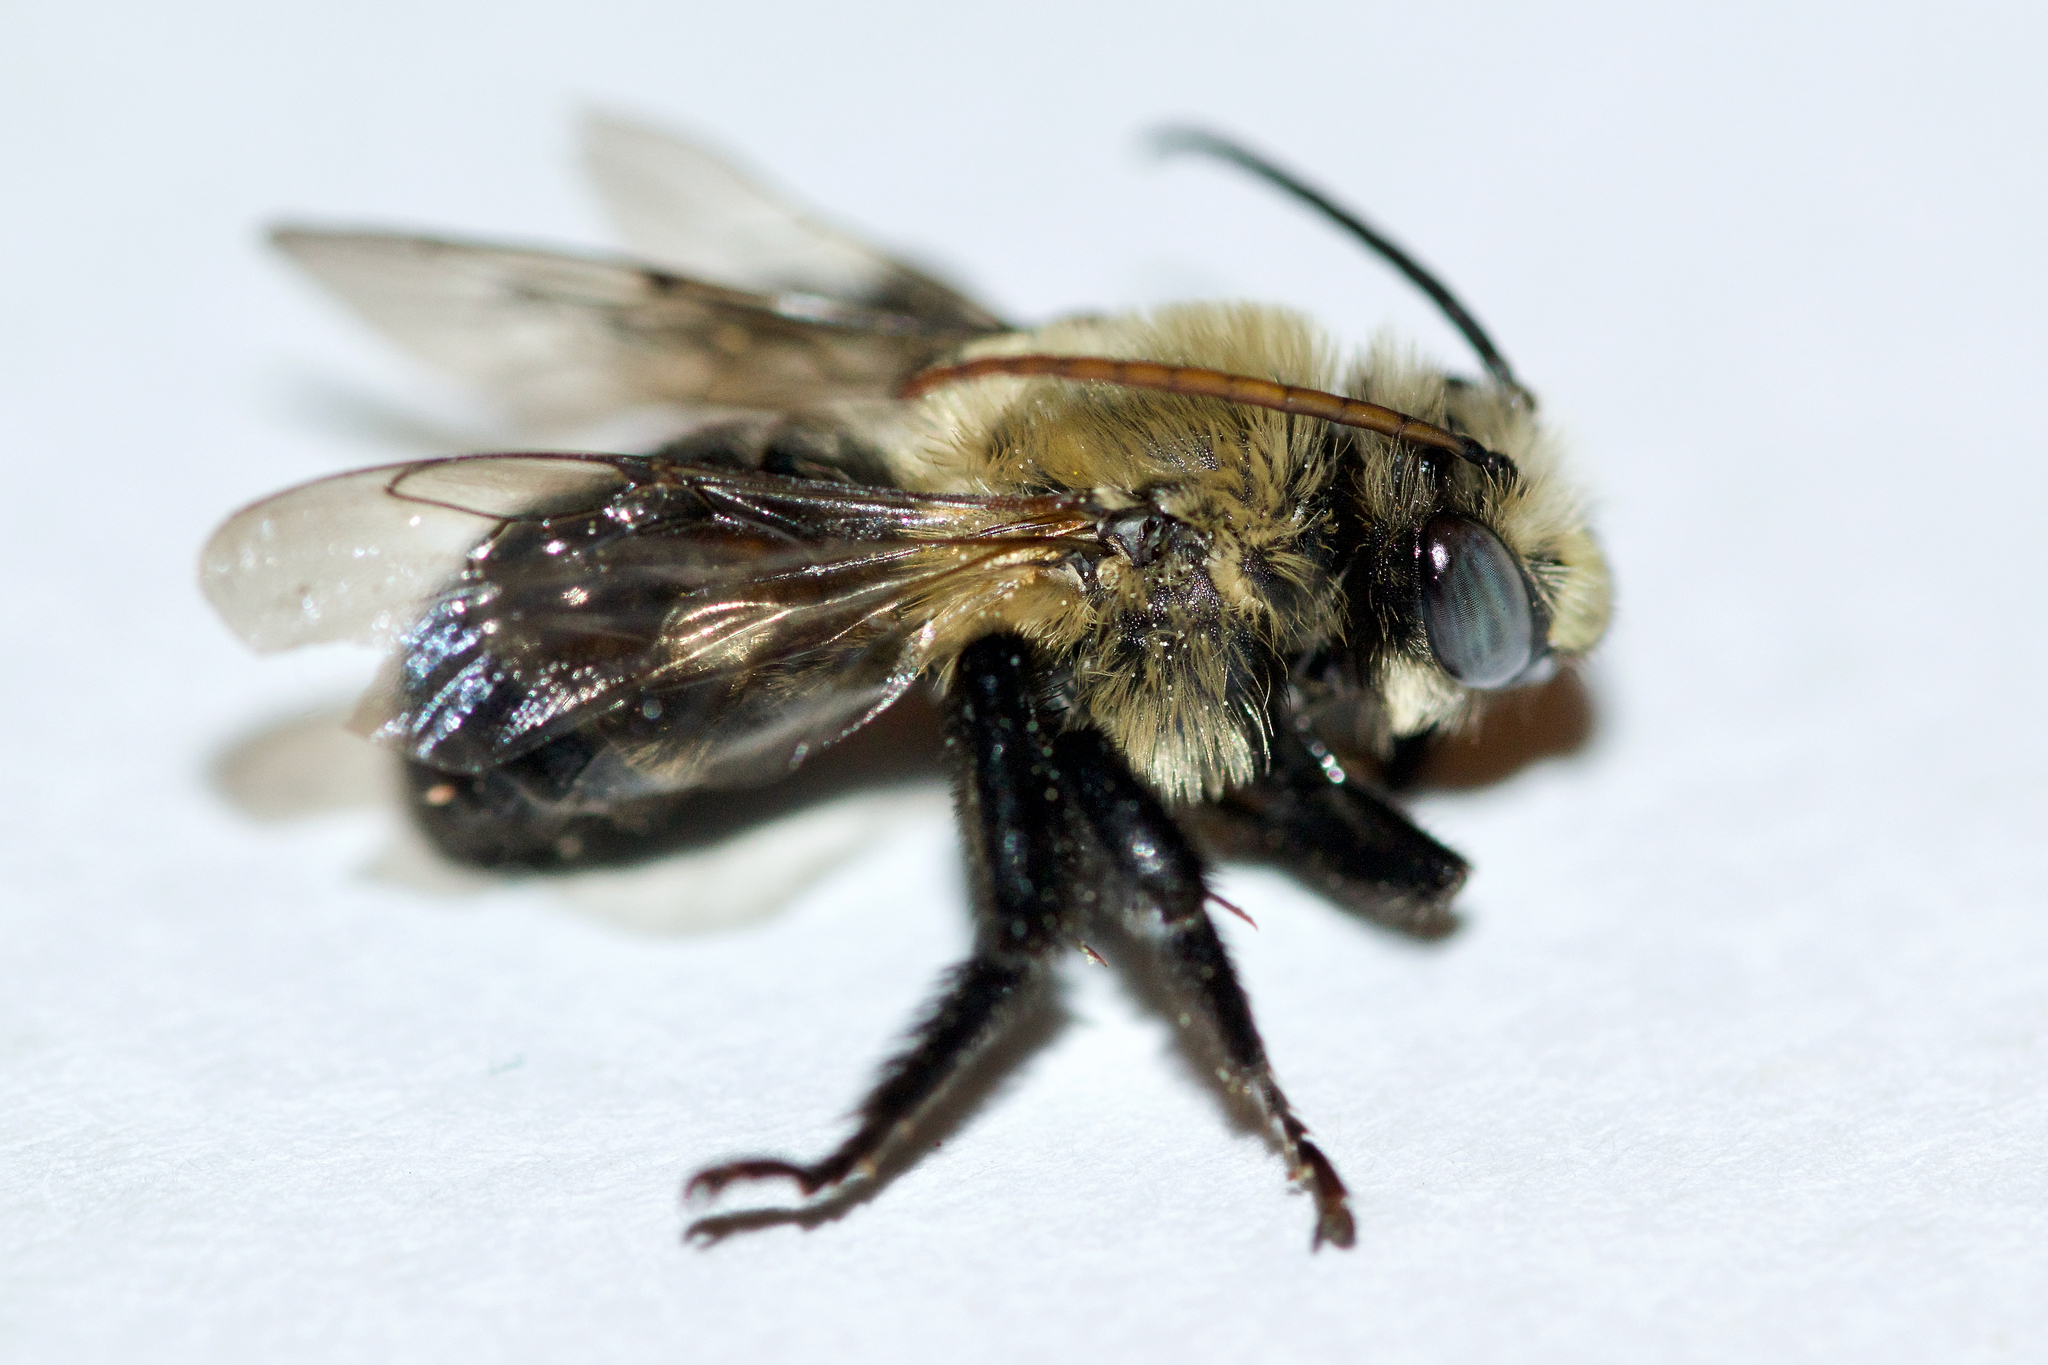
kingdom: Animalia
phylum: Arthropoda
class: Insecta
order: Hymenoptera
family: Apidae
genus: Melissodes
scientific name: Melissodes desponsus
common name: Thistle long-horned bee
